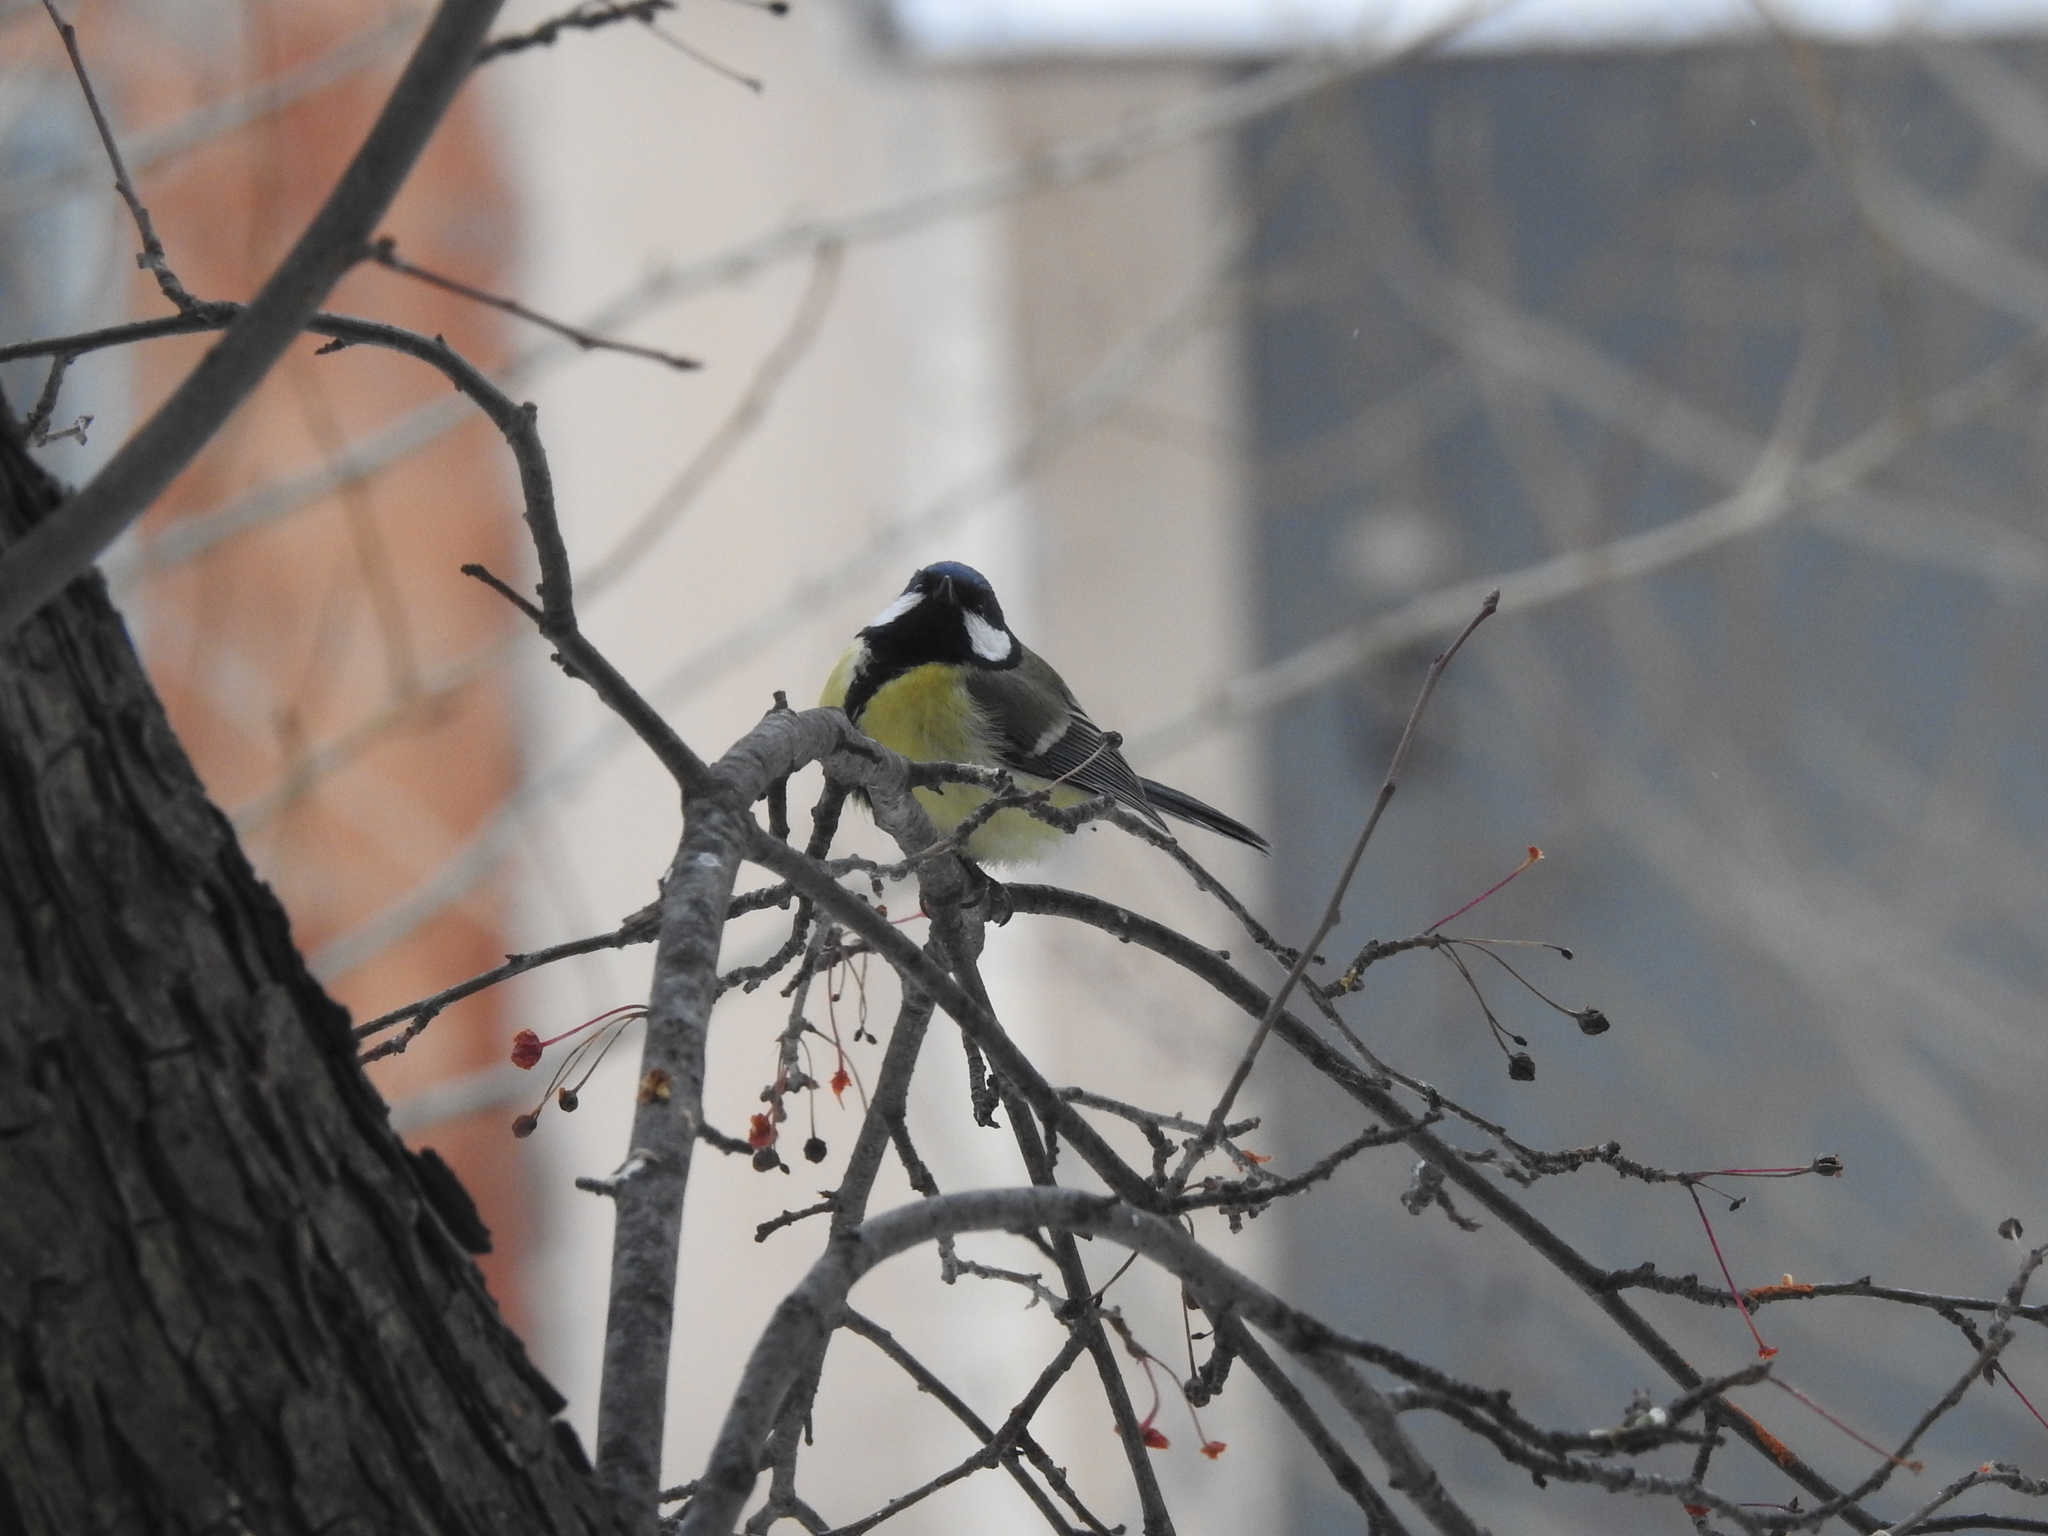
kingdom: Animalia
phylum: Chordata
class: Aves
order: Passeriformes
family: Paridae
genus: Parus
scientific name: Parus major
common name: Great tit
